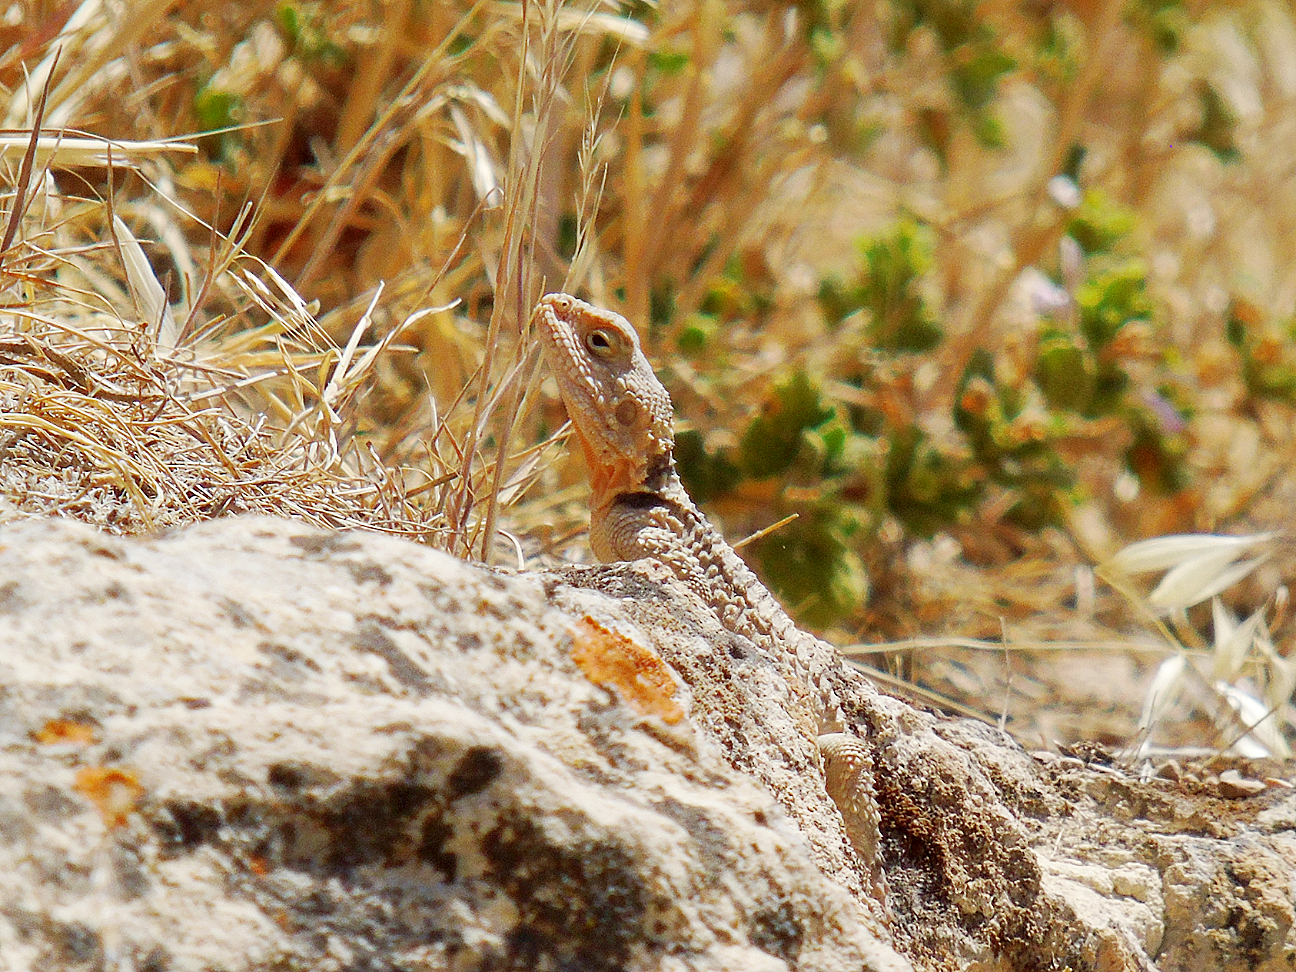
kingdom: Animalia
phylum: Chordata
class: Squamata
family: Agamidae
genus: Stellagama
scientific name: Stellagama stellio
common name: Starred agama
